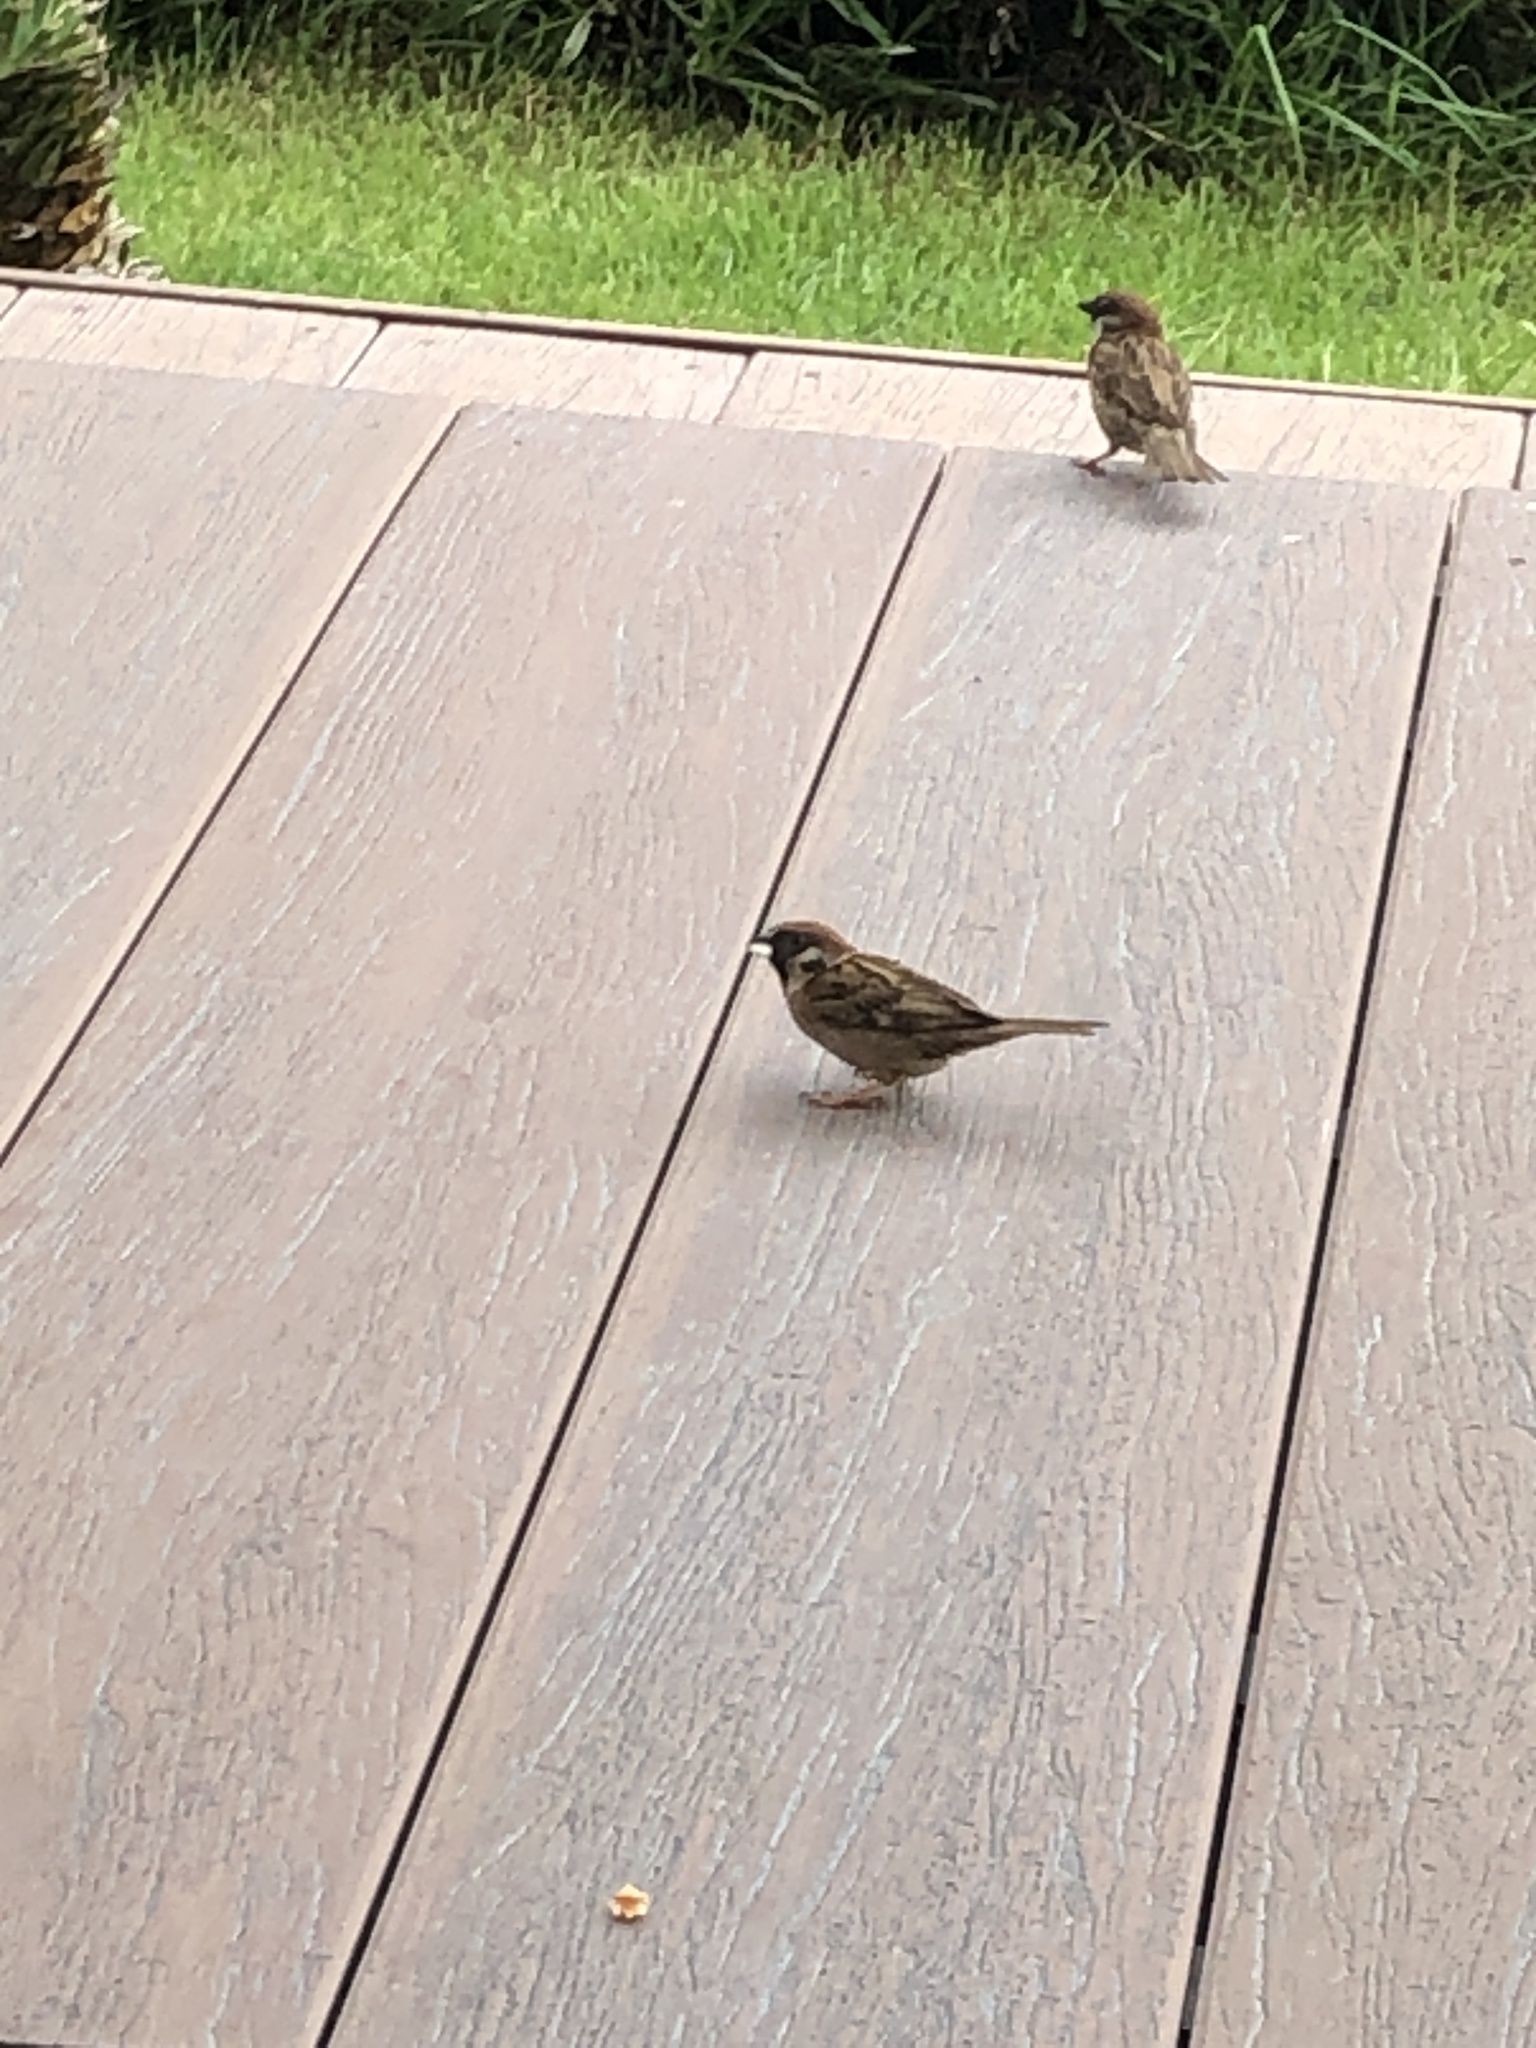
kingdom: Animalia
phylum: Chordata
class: Aves
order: Passeriformes
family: Passeridae
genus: Passer
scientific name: Passer montanus
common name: Eurasian tree sparrow
